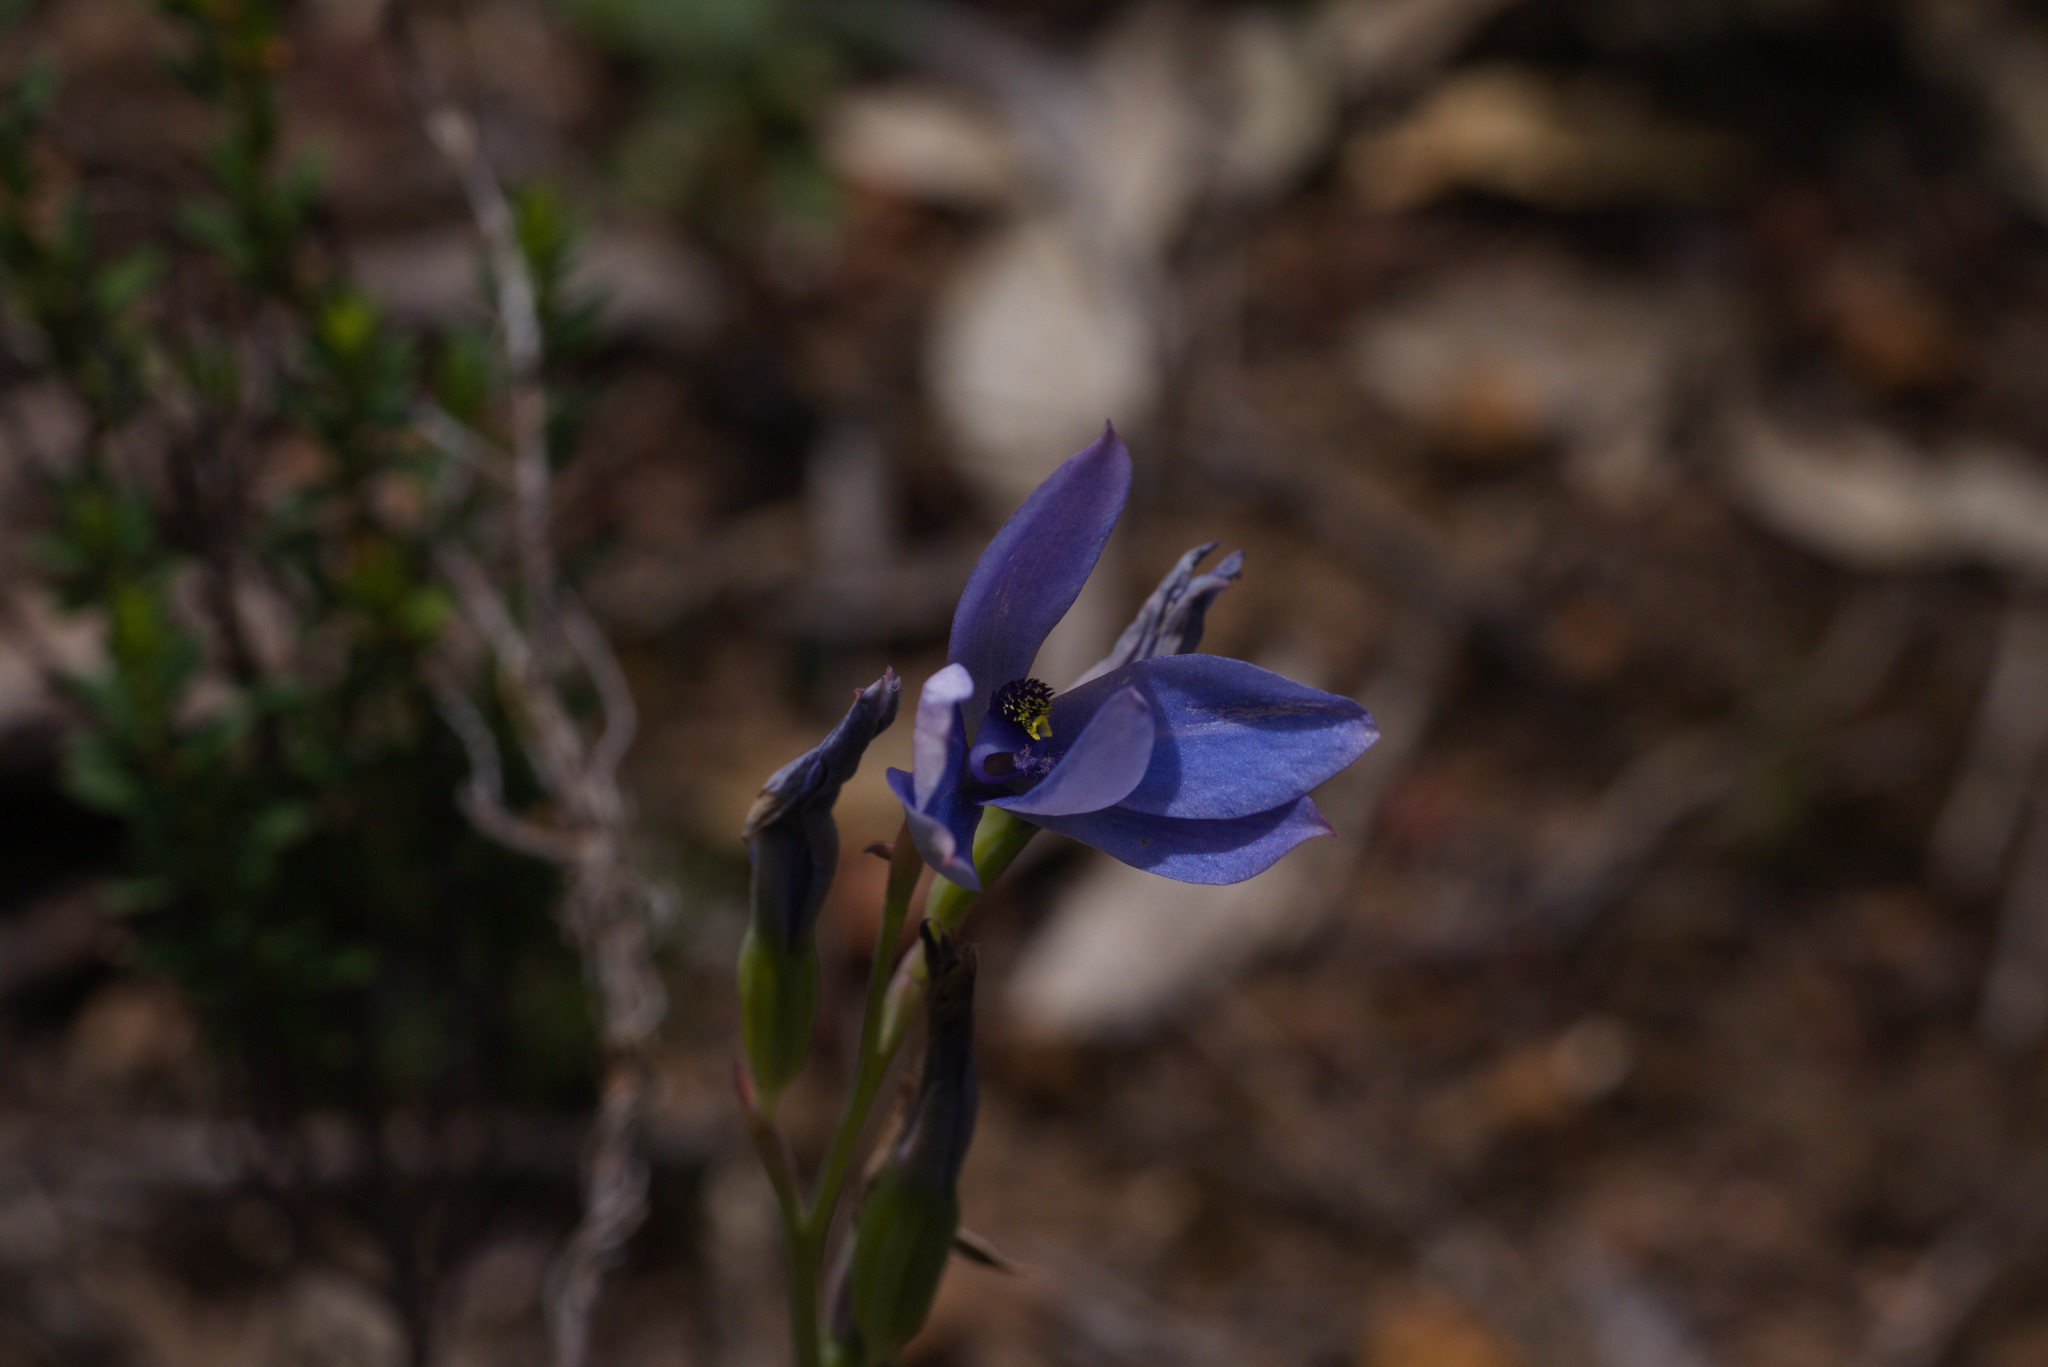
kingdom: Plantae
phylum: Tracheophyta
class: Liliopsida
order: Asparagales
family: Orchidaceae
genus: Thelymitra
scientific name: Thelymitra crinita
